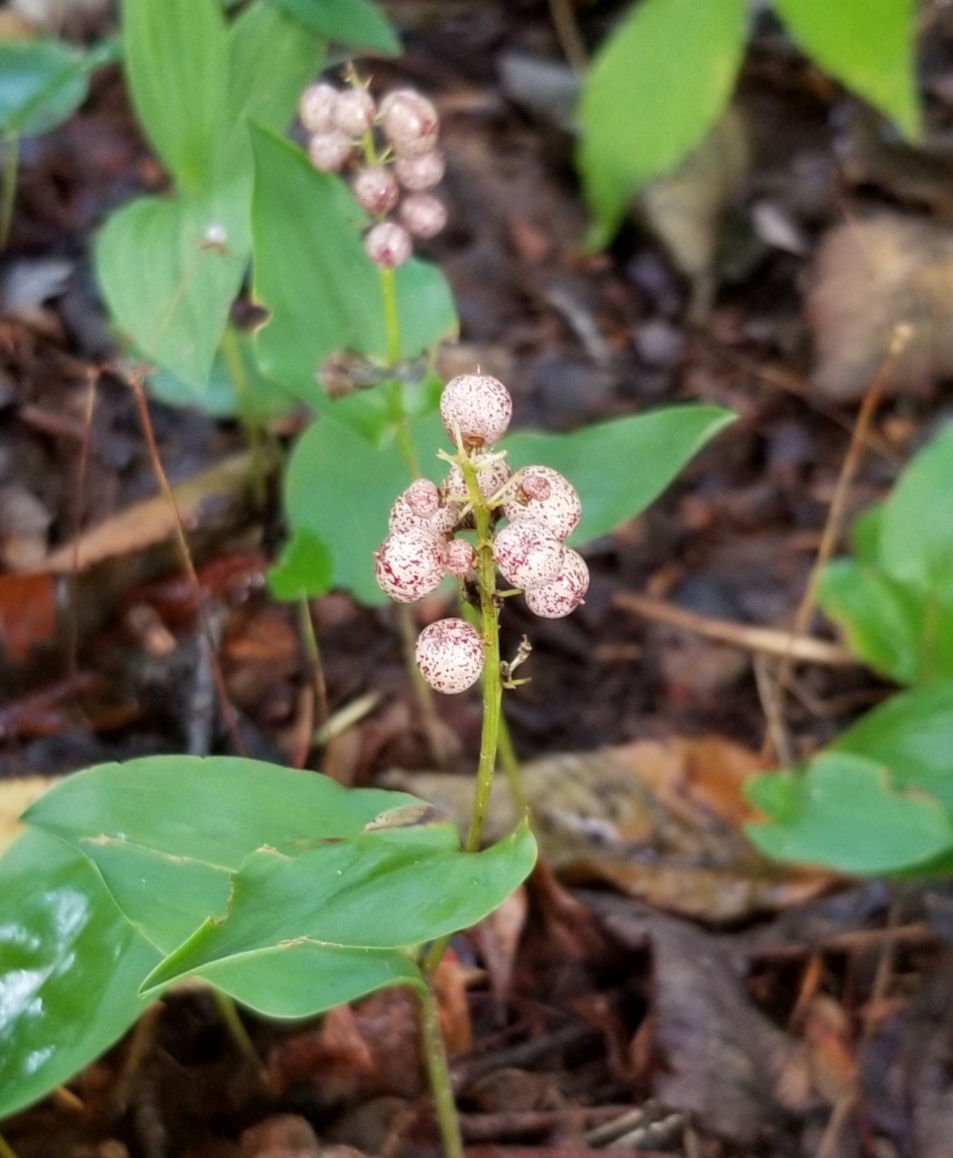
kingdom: Plantae
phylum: Tracheophyta
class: Liliopsida
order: Asparagales
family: Asparagaceae
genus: Maianthemum
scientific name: Maianthemum canadense
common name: False lily-of-the-valley
